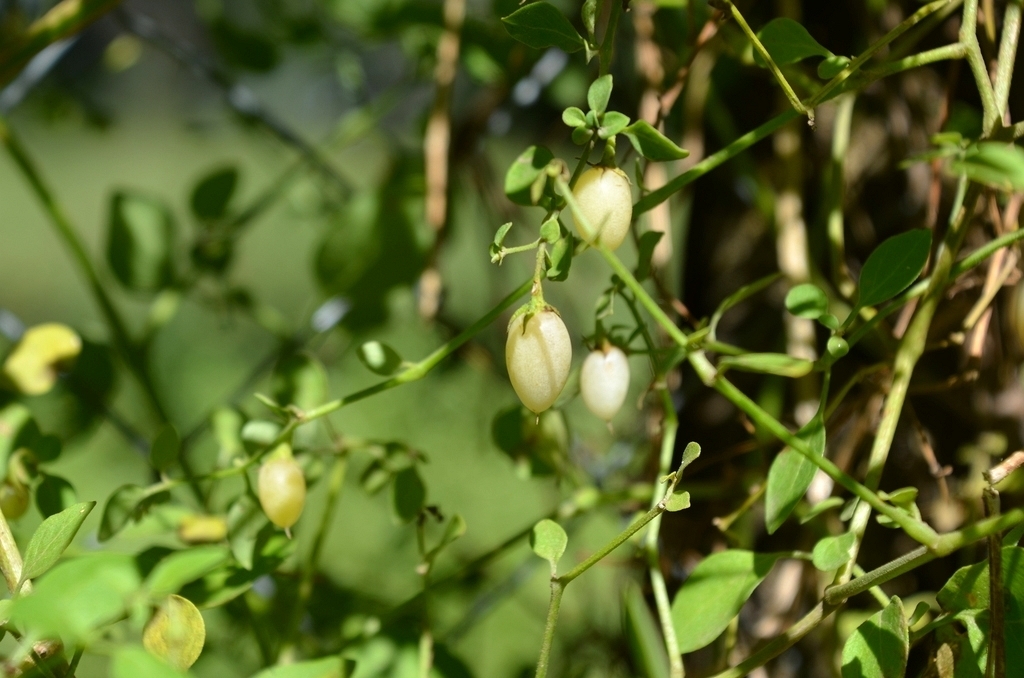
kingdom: Plantae
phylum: Tracheophyta
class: Magnoliopsida
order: Solanales
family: Solanaceae
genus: Salpichroa
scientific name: Salpichroa origanifolia
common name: Lily-of-the-valley-vine
